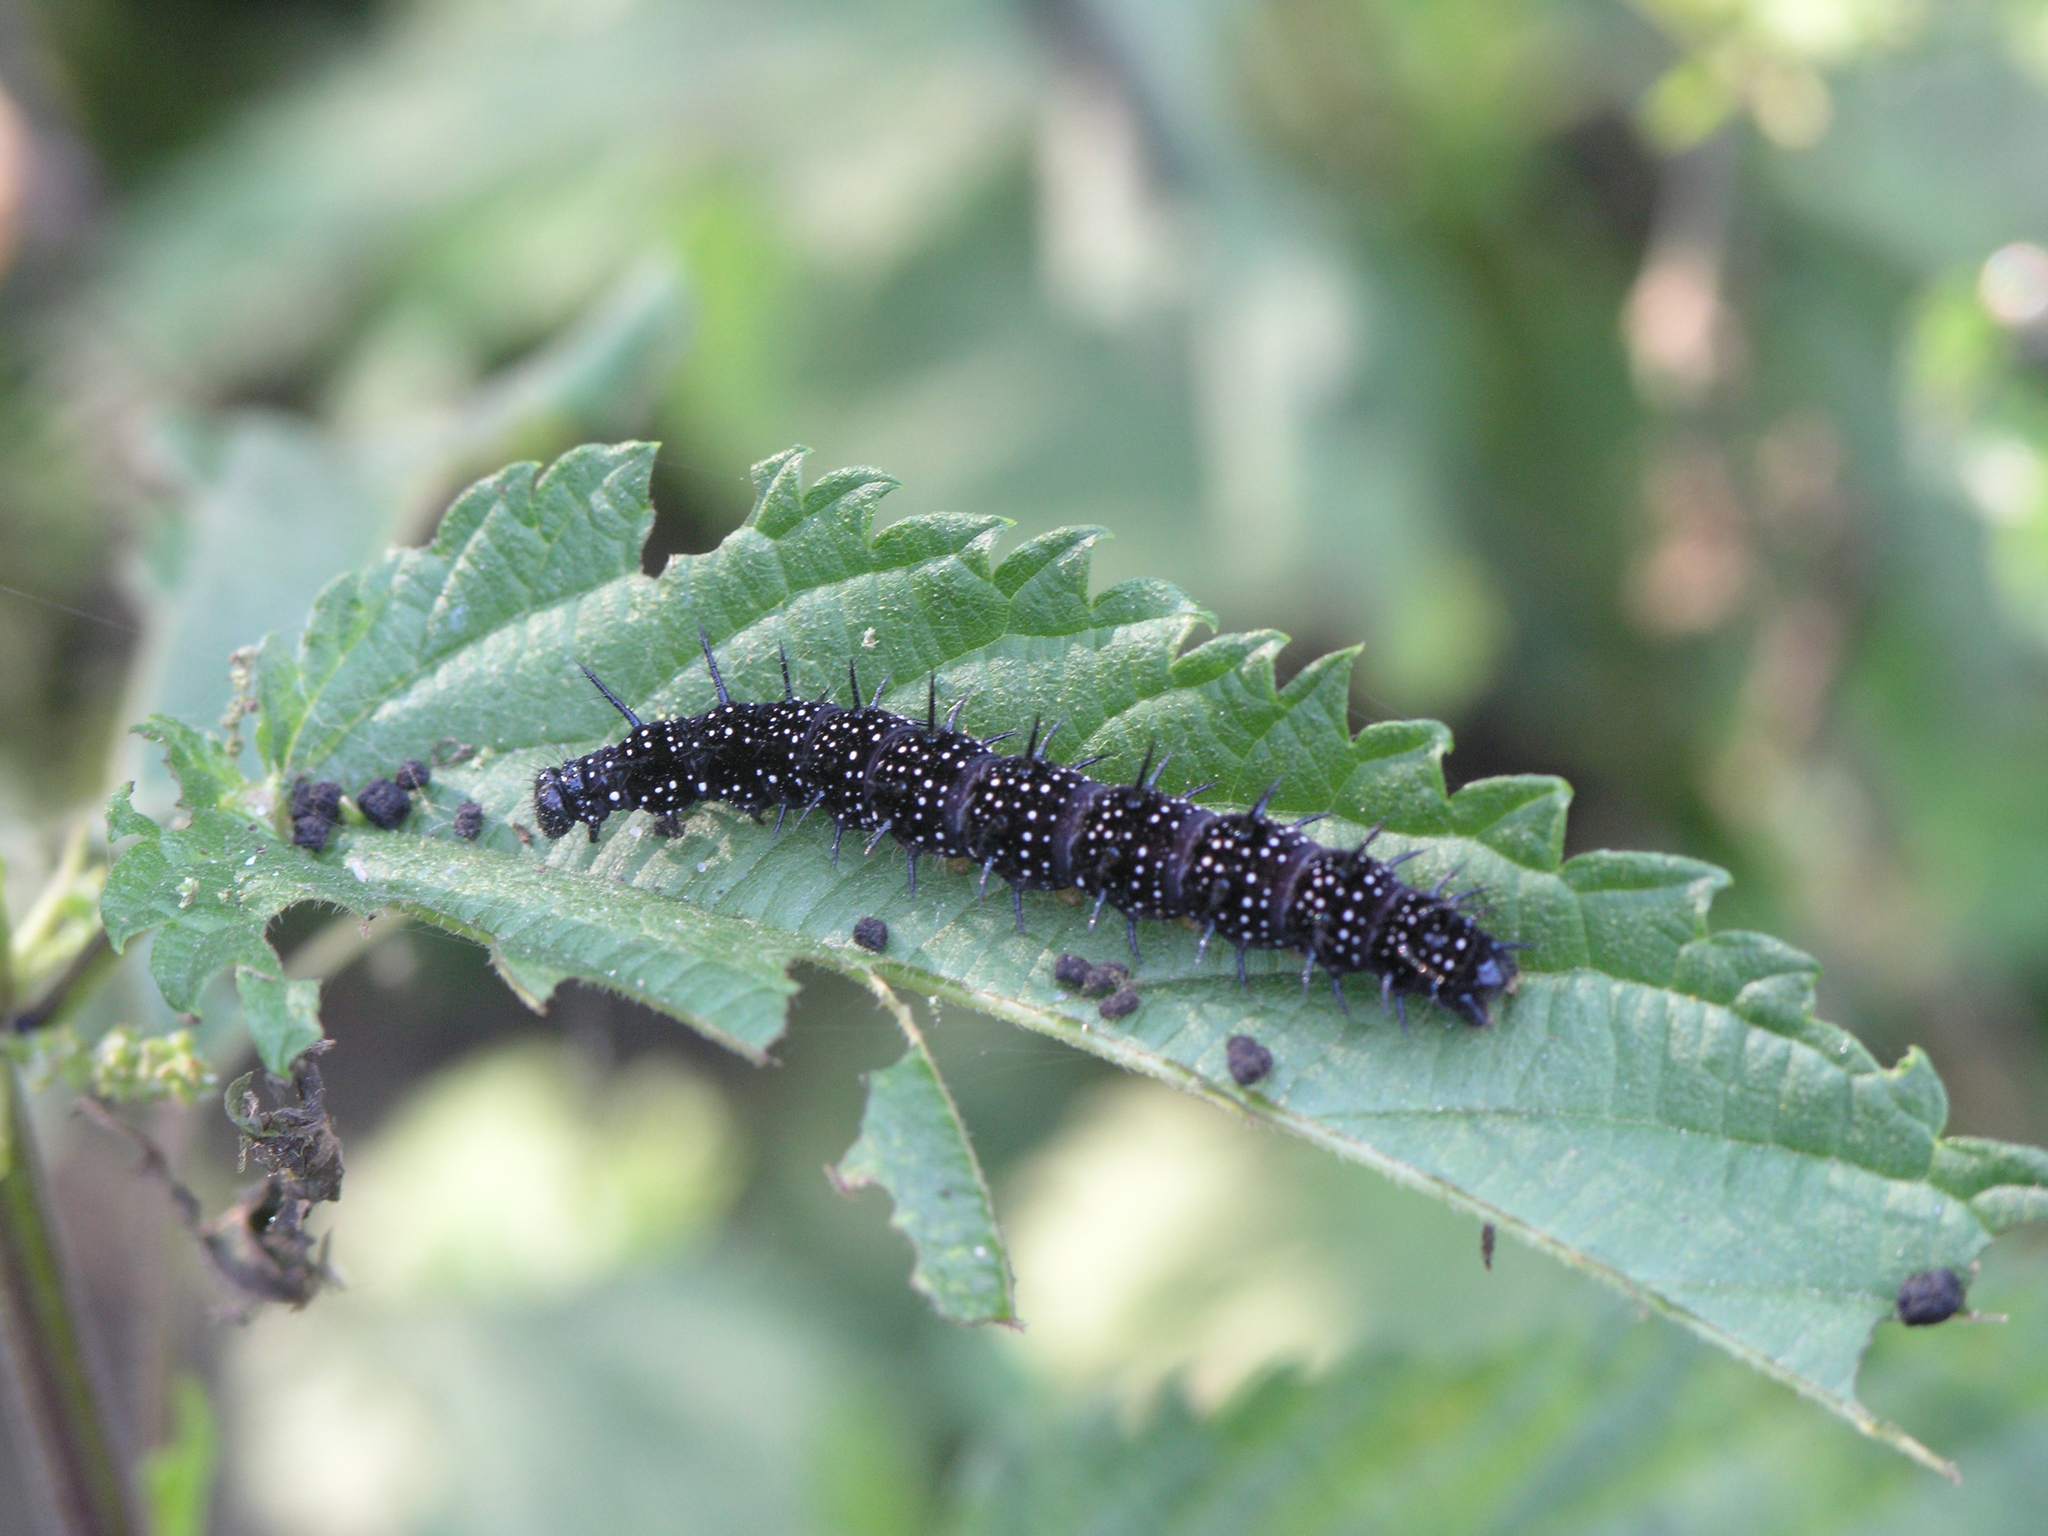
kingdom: Animalia
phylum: Arthropoda
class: Insecta
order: Lepidoptera
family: Nymphalidae
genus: Aglais
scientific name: Aglais io
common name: Peacock
